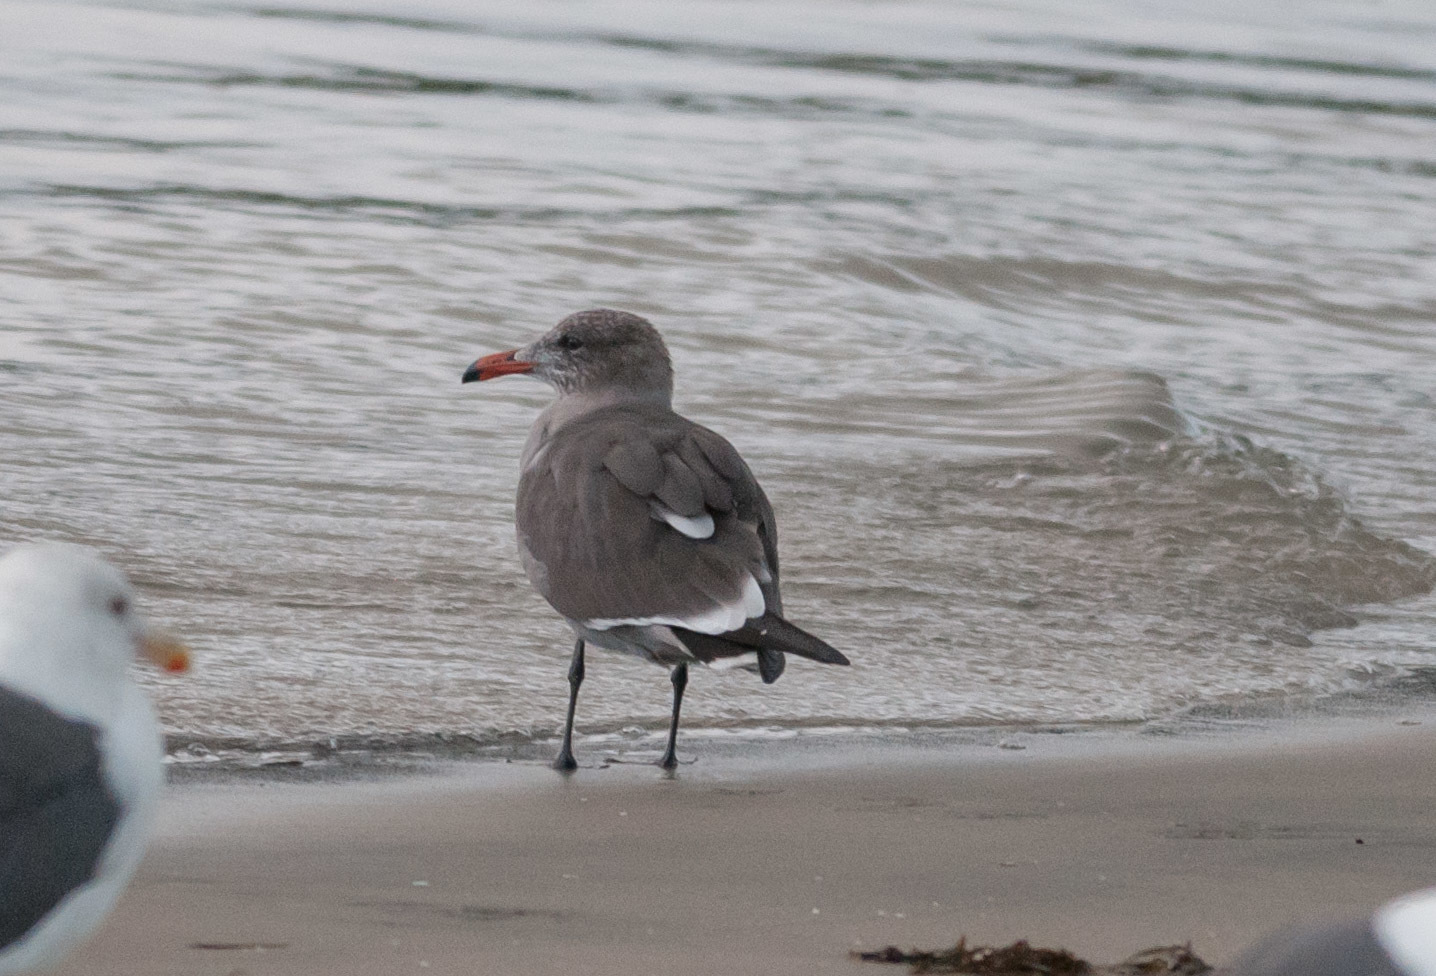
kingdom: Animalia
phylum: Chordata
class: Aves
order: Charadriiformes
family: Laridae
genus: Larus
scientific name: Larus heermanni
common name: Heermann's gull
